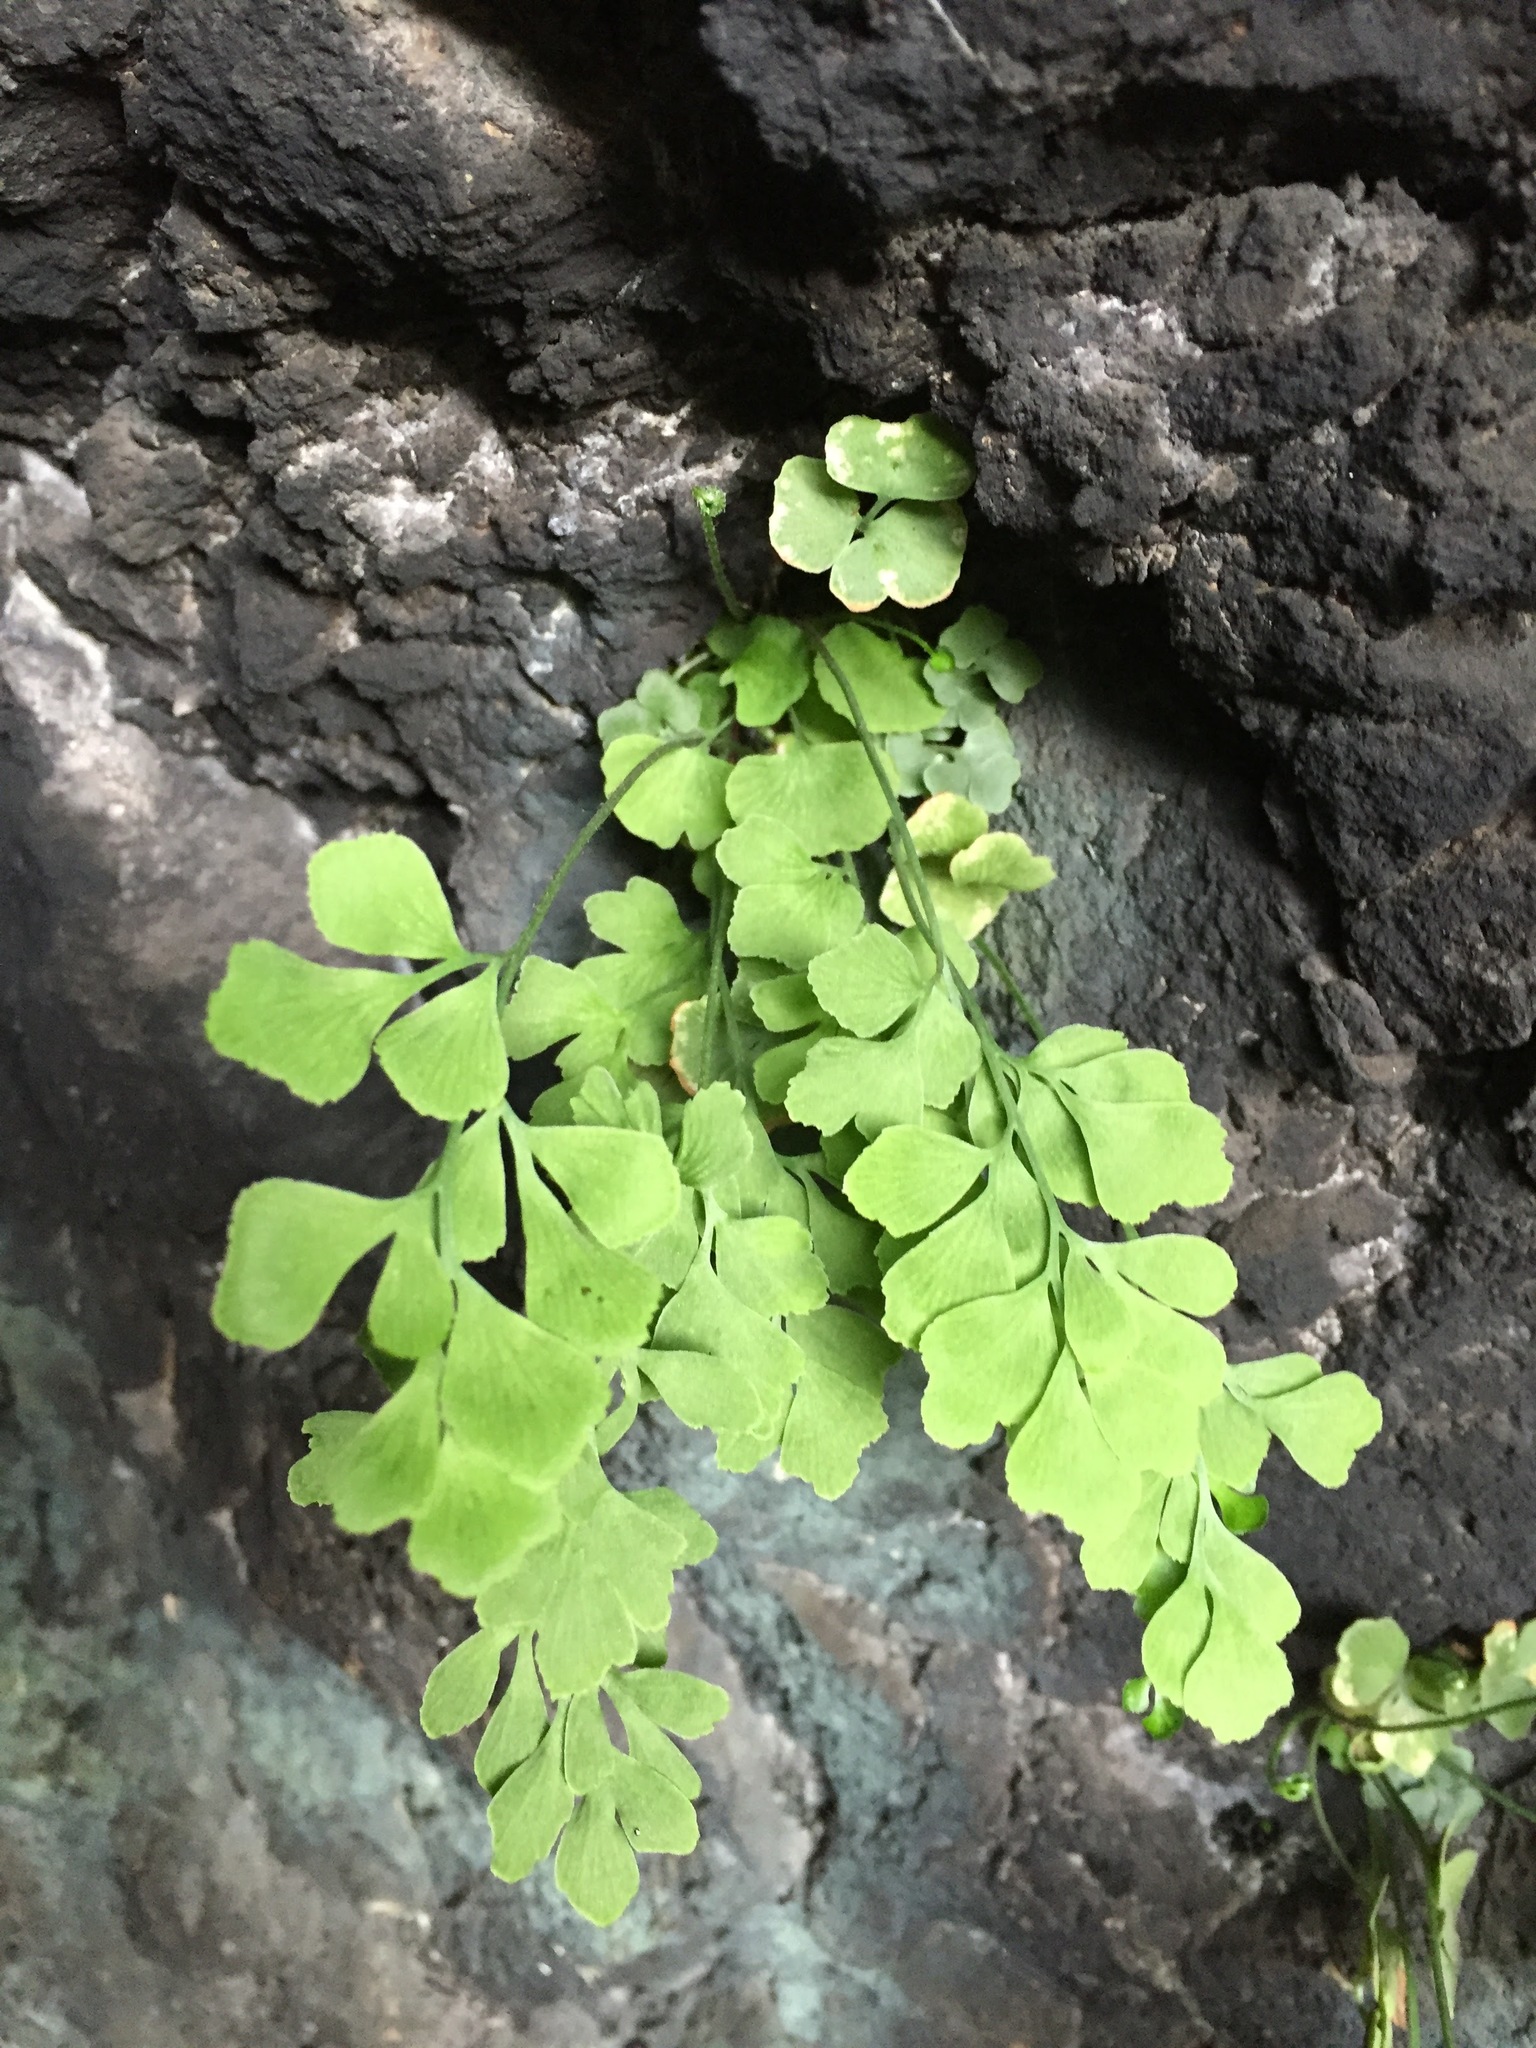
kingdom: Plantae
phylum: Tracheophyta
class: Polypodiopsida
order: Polypodiales
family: Pteridaceae
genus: Adiantum
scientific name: Adiantum capillus-veneris
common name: Maidenhair fern
